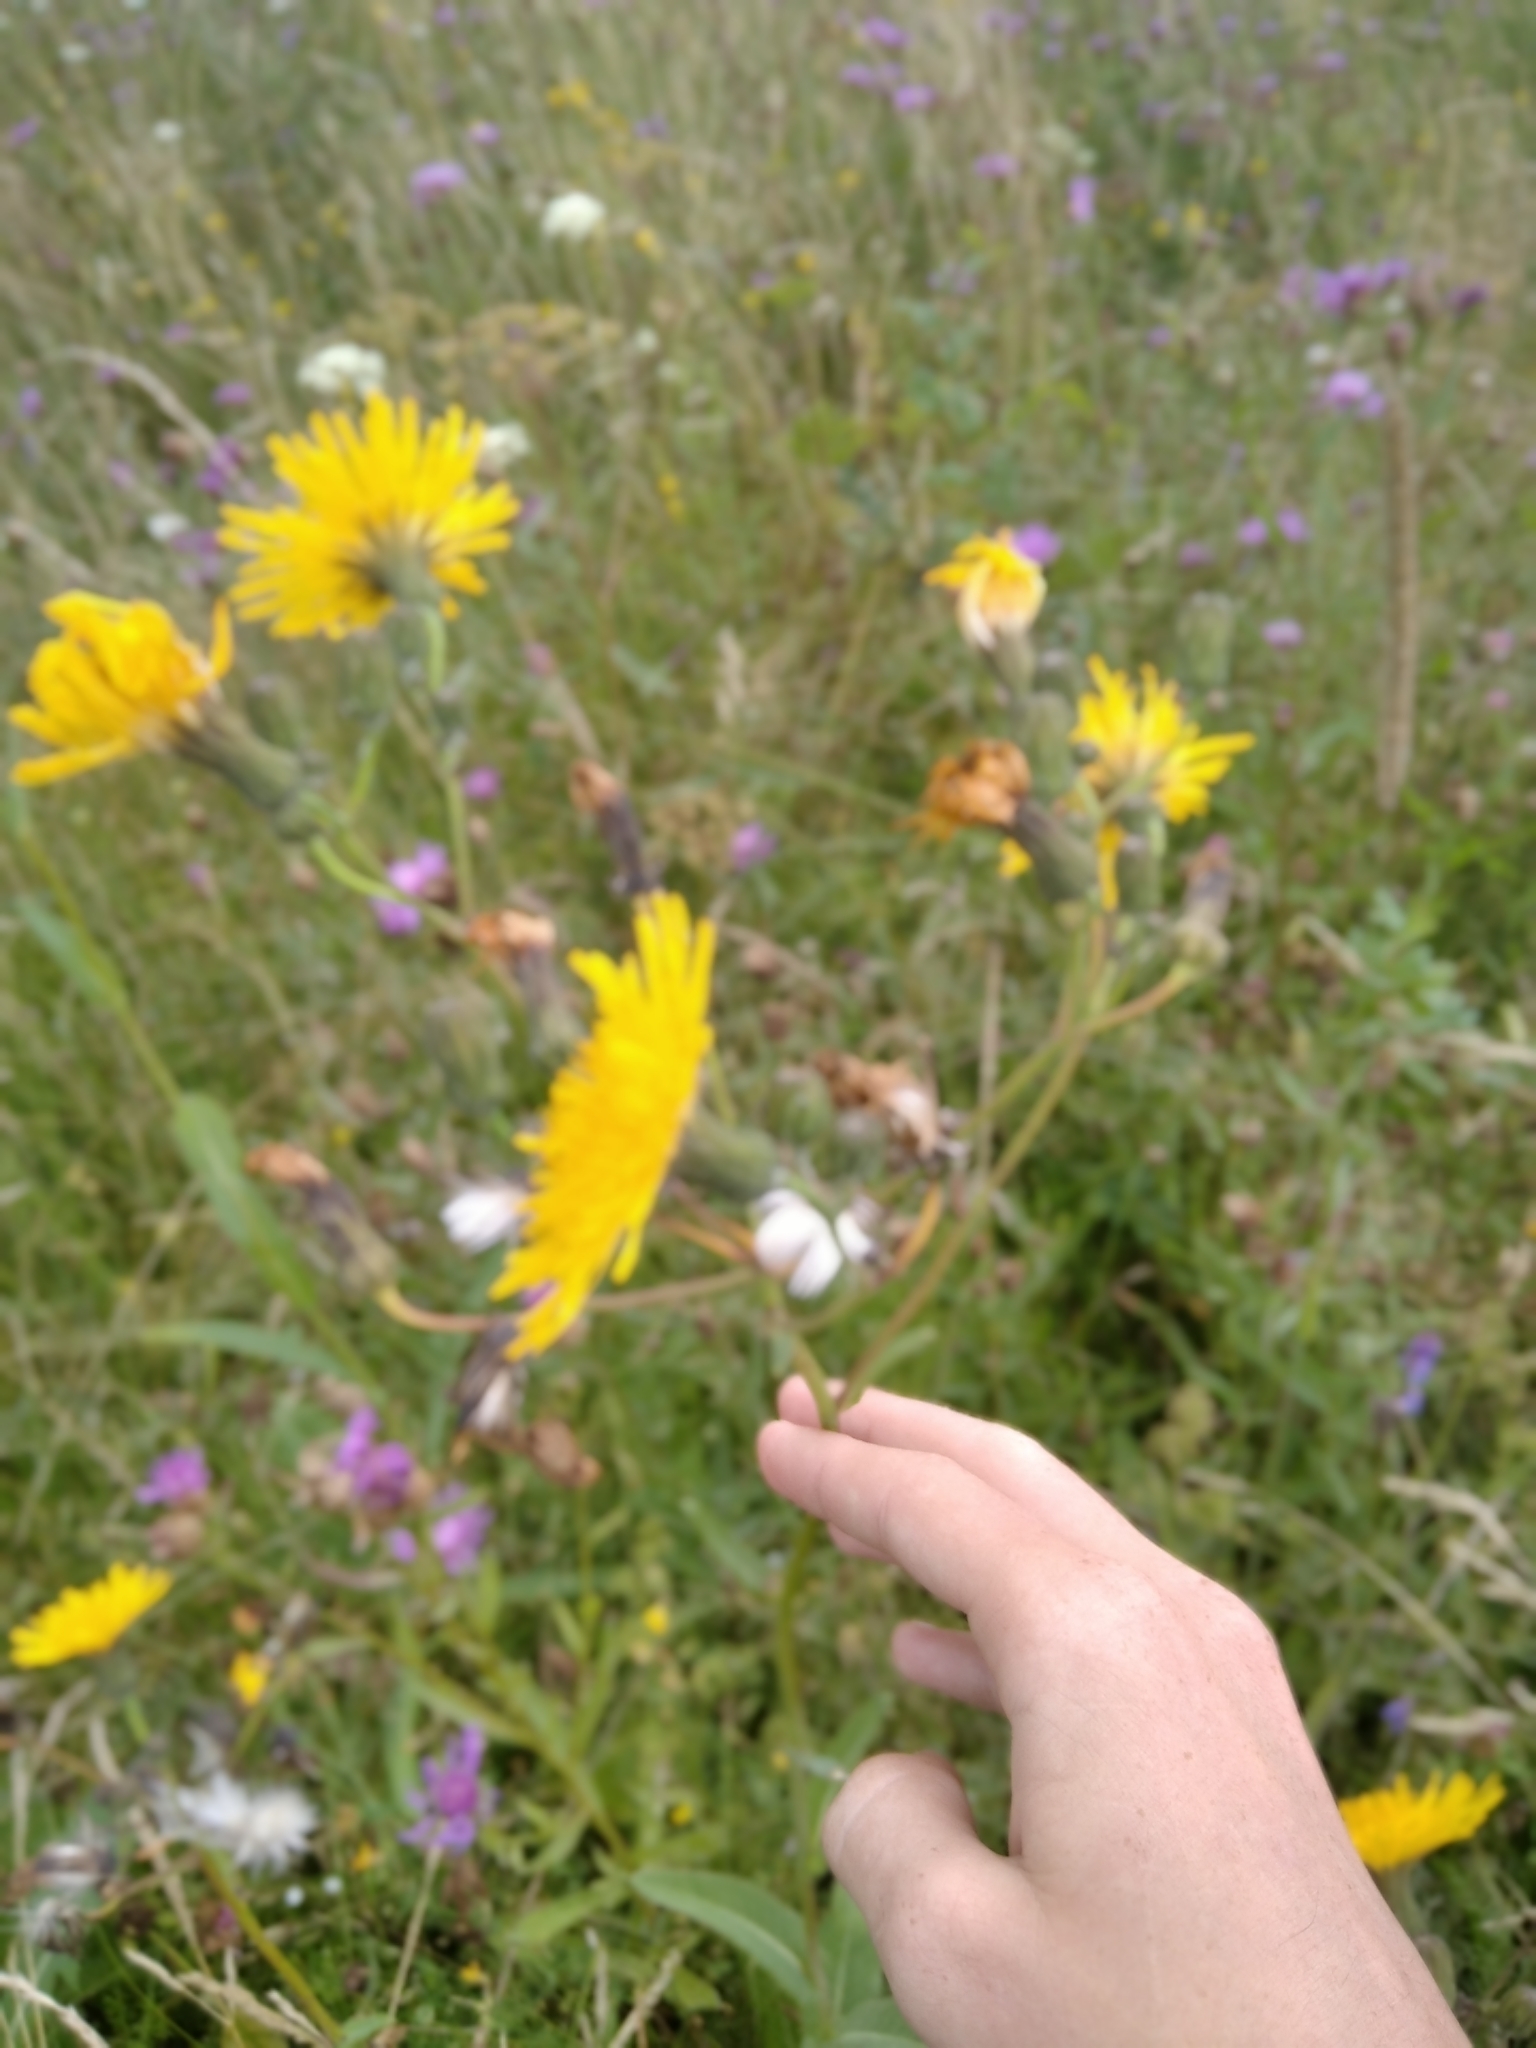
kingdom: Plantae
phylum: Tracheophyta
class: Magnoliopsida
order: Asterales
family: Asteraceae
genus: Sonchus
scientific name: Sonchus arvensis
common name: Perennial sow-thistle
